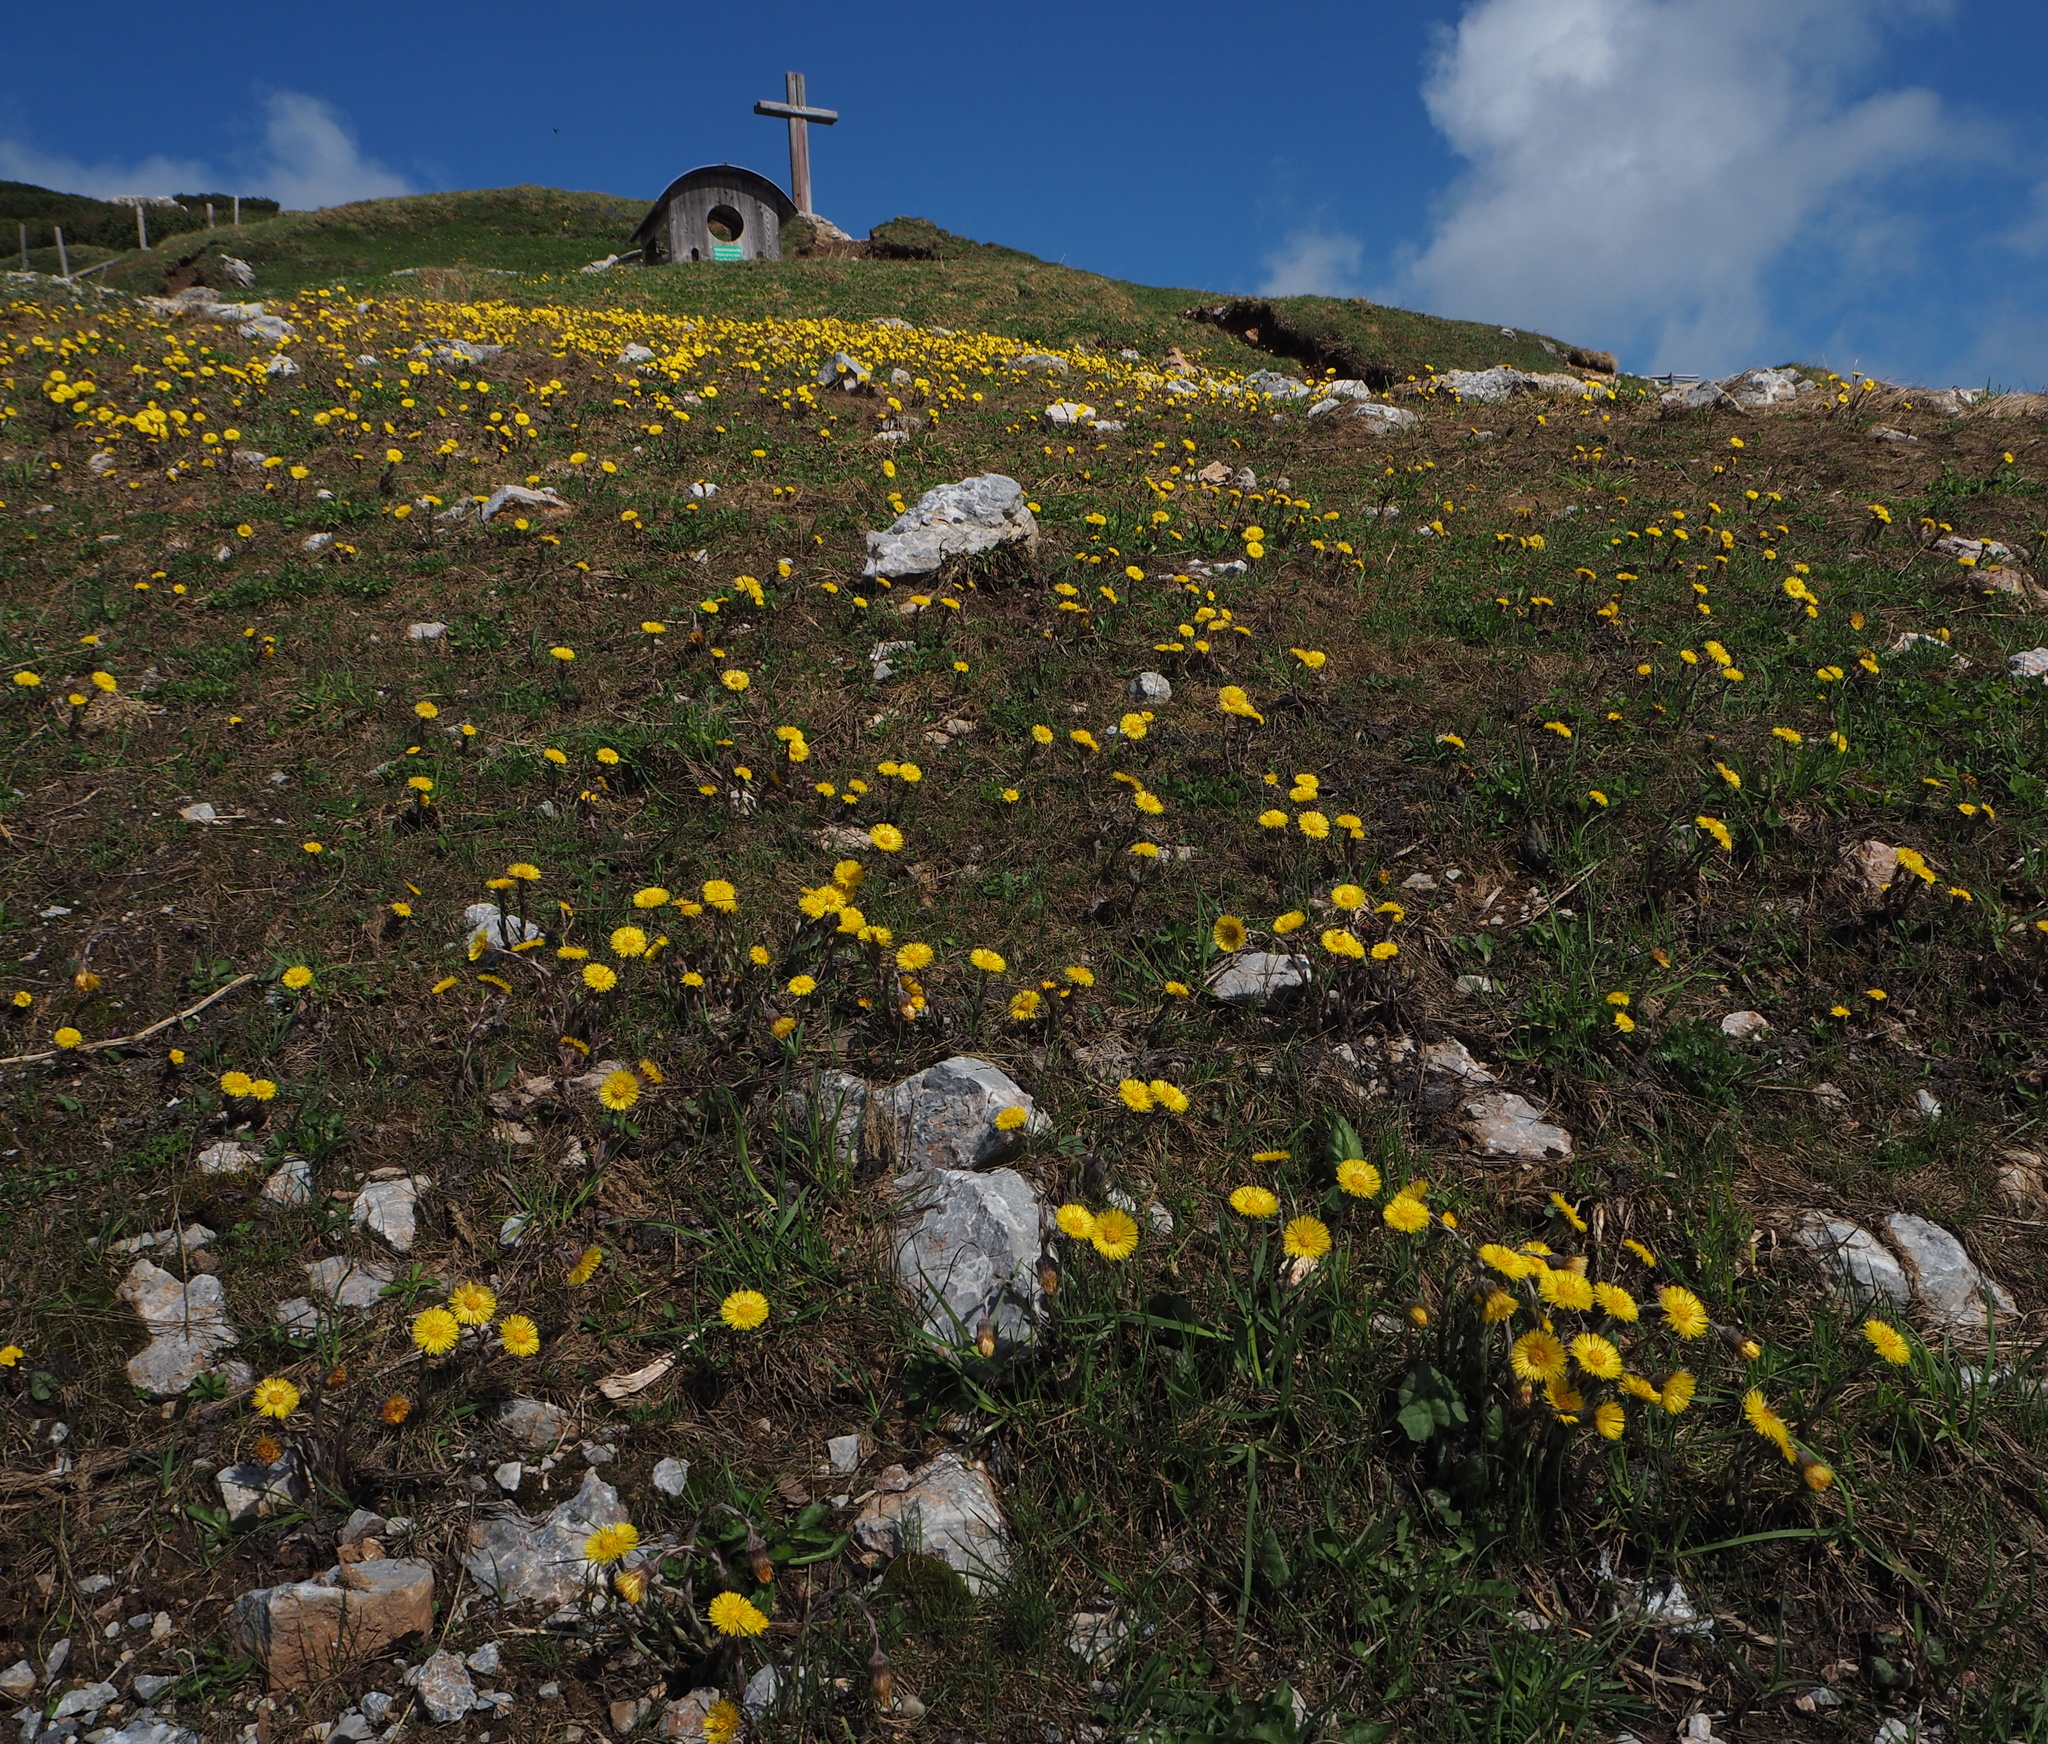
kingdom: Plantae
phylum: Tracheophyta
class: Magnoliopsida
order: Asterales
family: Asteraceae
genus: Tussilago
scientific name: Tussilago farfara
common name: Coltsfoot
